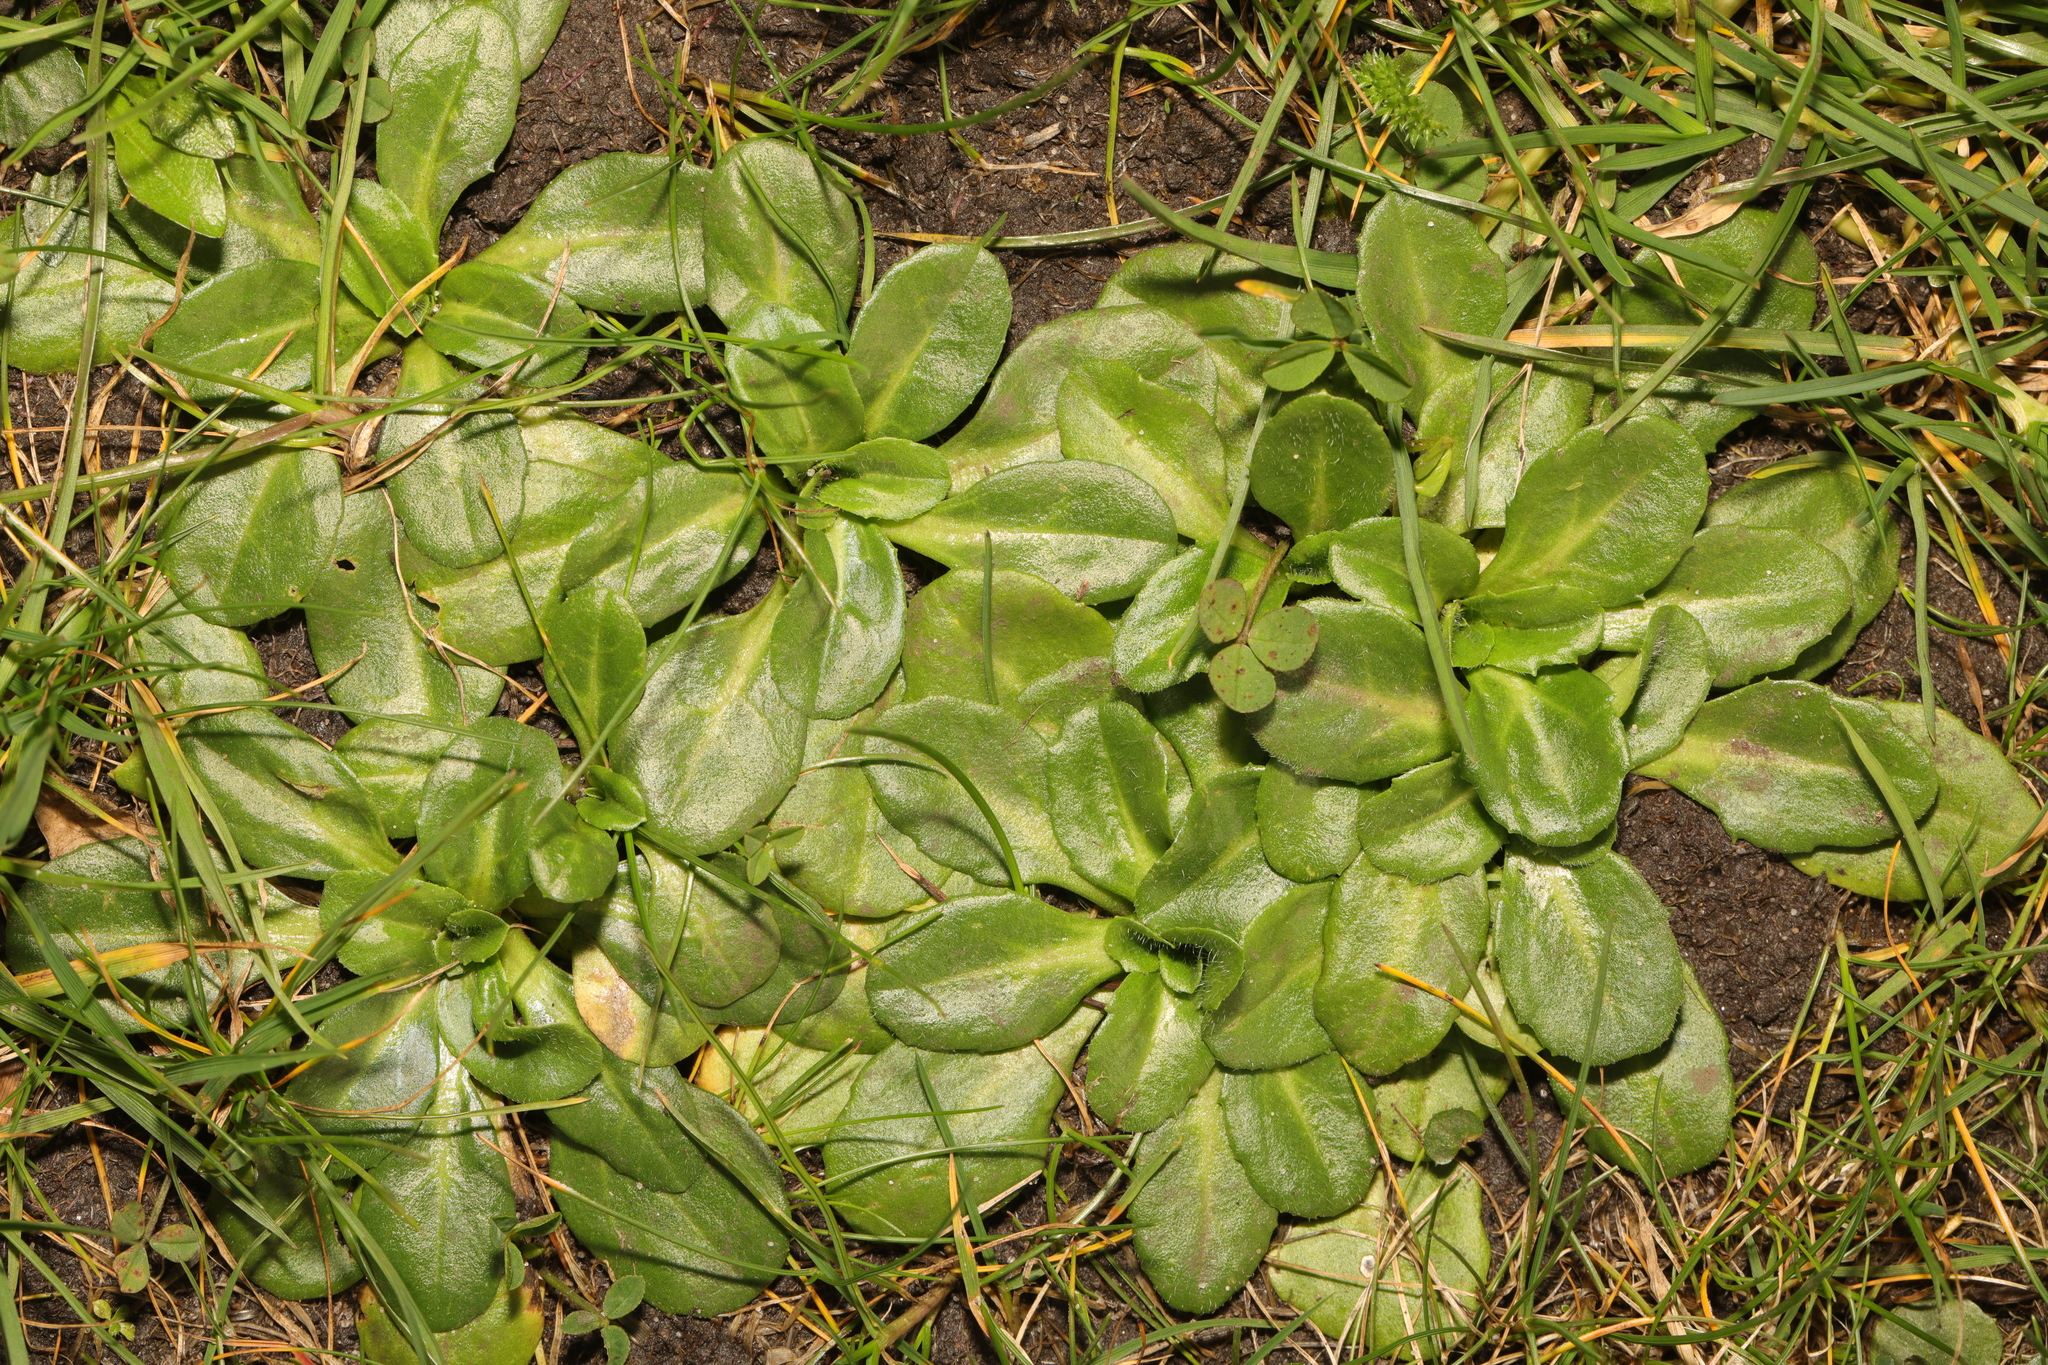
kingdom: Plantae
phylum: Tracheophyta
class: Magnoliopsida
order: Asterales
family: Asteraceae
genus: Bellis
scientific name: Bellis perennis
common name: Lawndaisy
